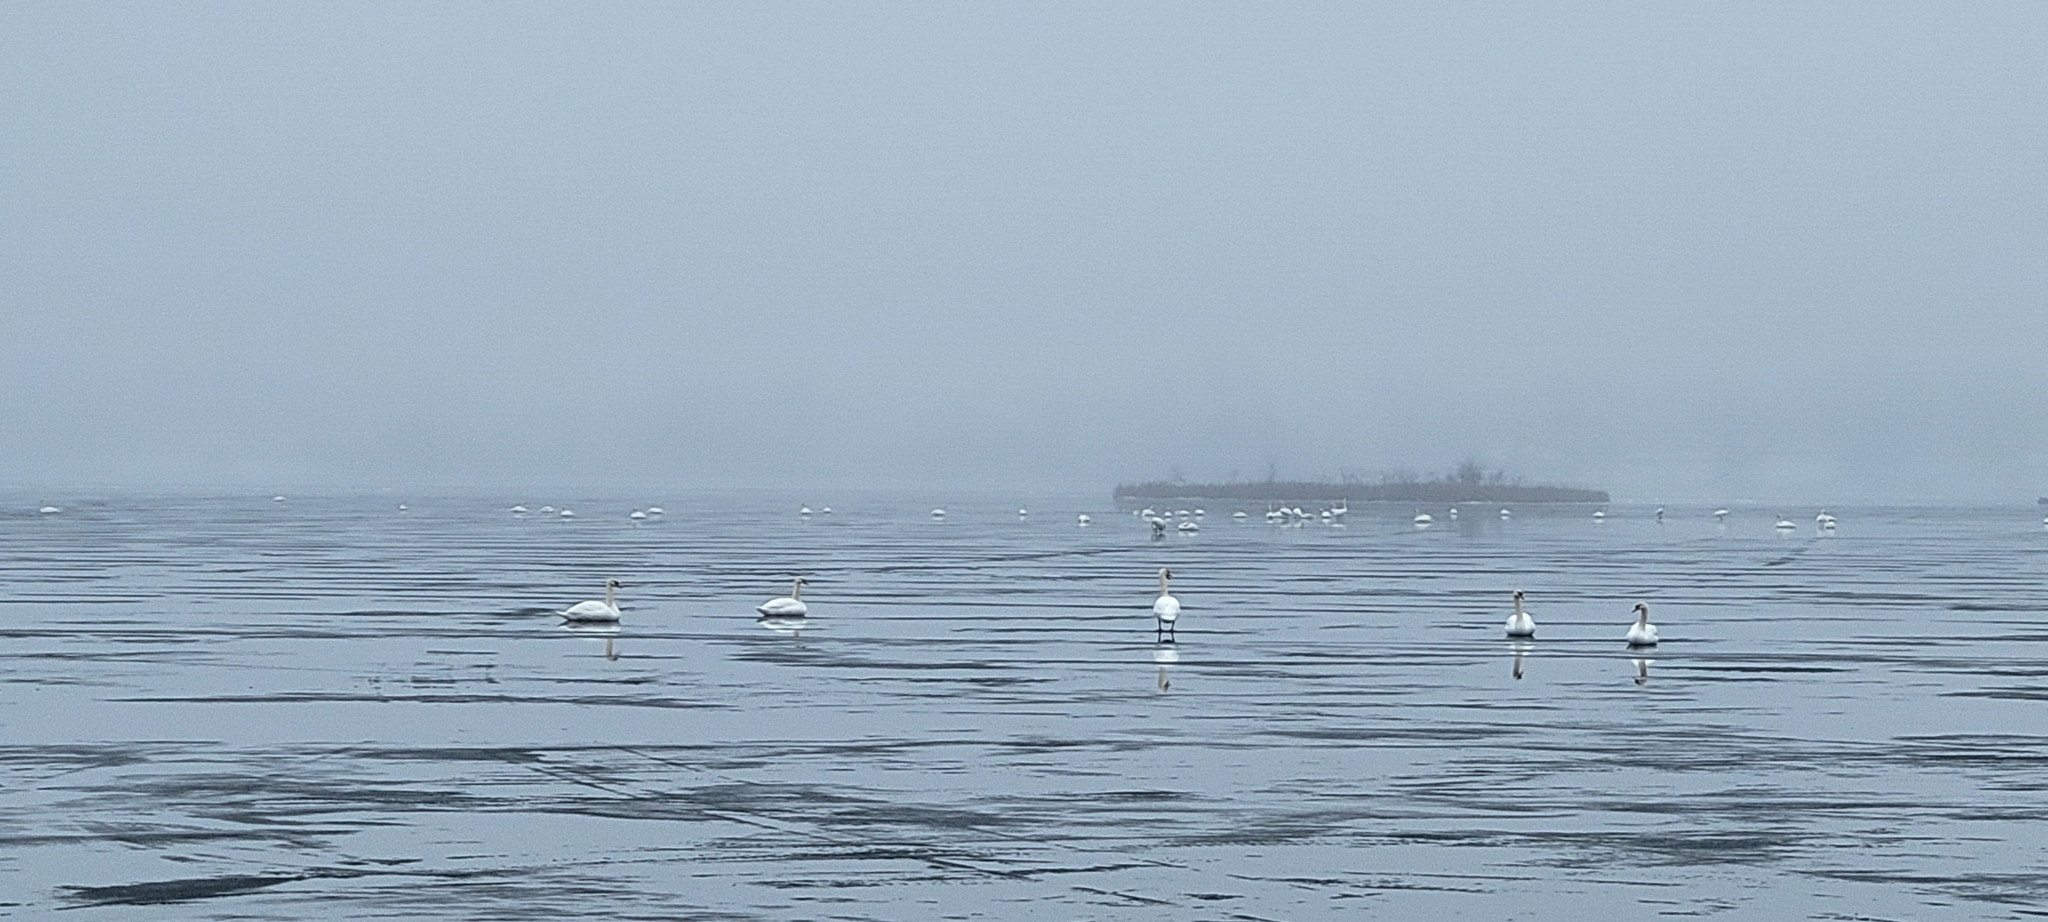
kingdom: Animalia
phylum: Chordata
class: Aves
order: Anseriformes
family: Anatidae
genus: Cygnus
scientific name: Cygnus olor
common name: Mute swan
